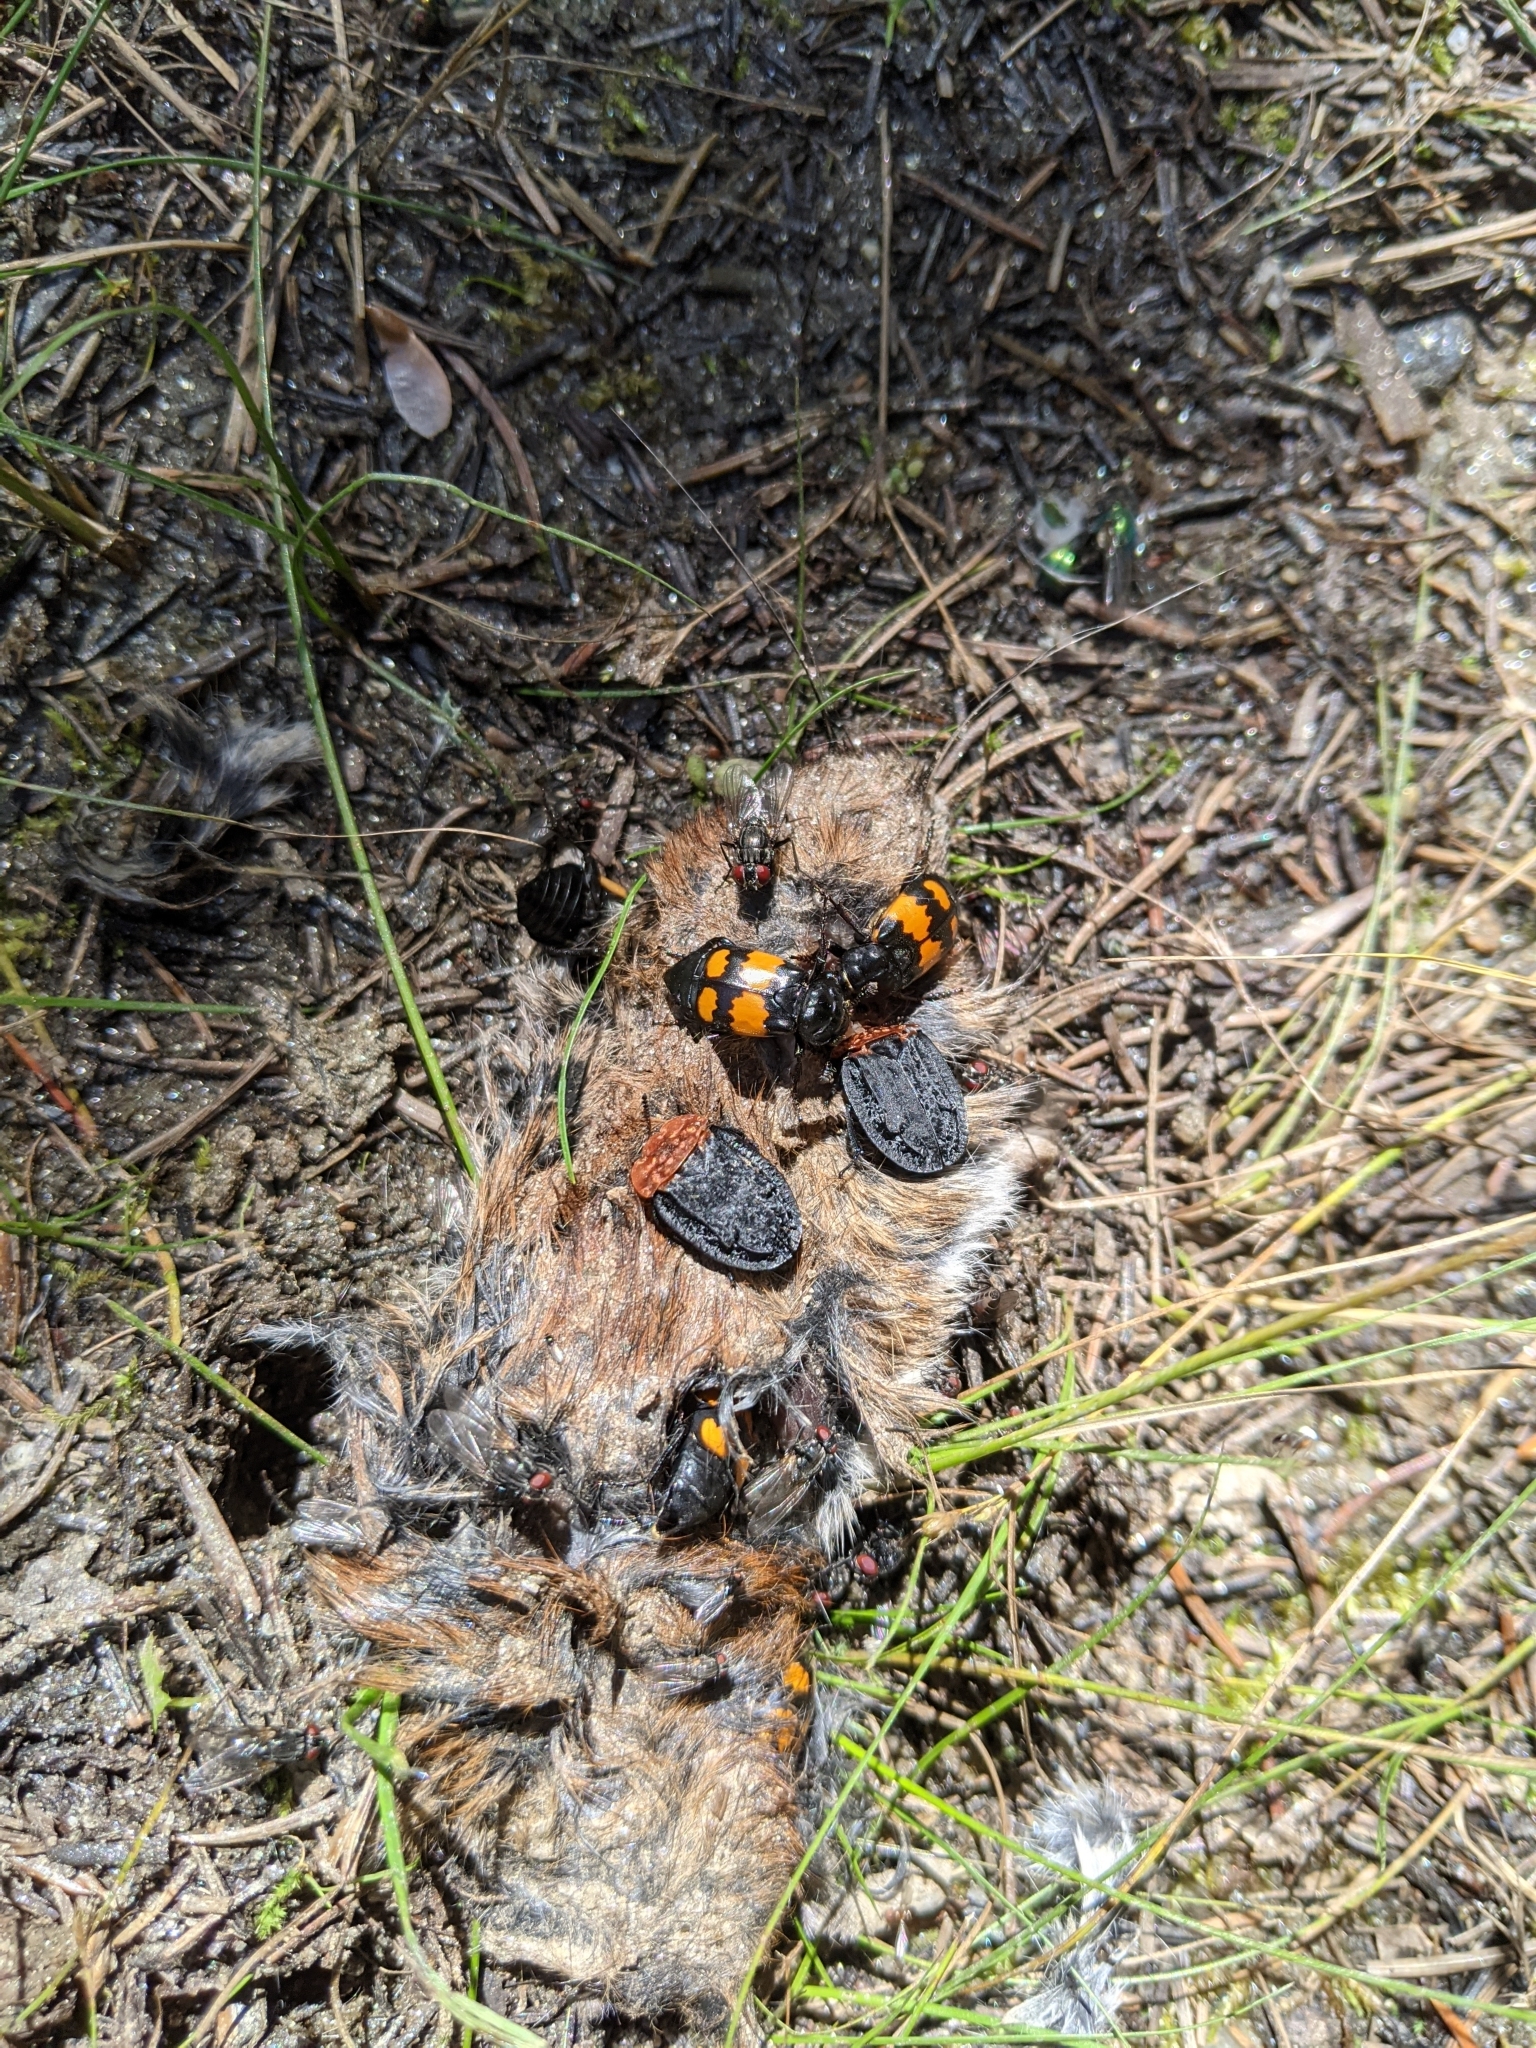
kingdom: Animalia
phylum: Arthropoda
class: Insecta
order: Coleoptera
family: Staphylinidae
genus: Nicrophorus
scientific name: Nicrophorus vespilloides
